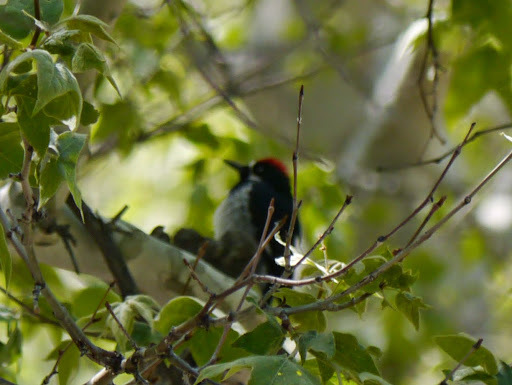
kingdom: Animalia
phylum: Chordata
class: Aves
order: Piciformes
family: Picidae
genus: Melanerpes
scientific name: Melanerpes formicivorus
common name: Acorn woodpecker
